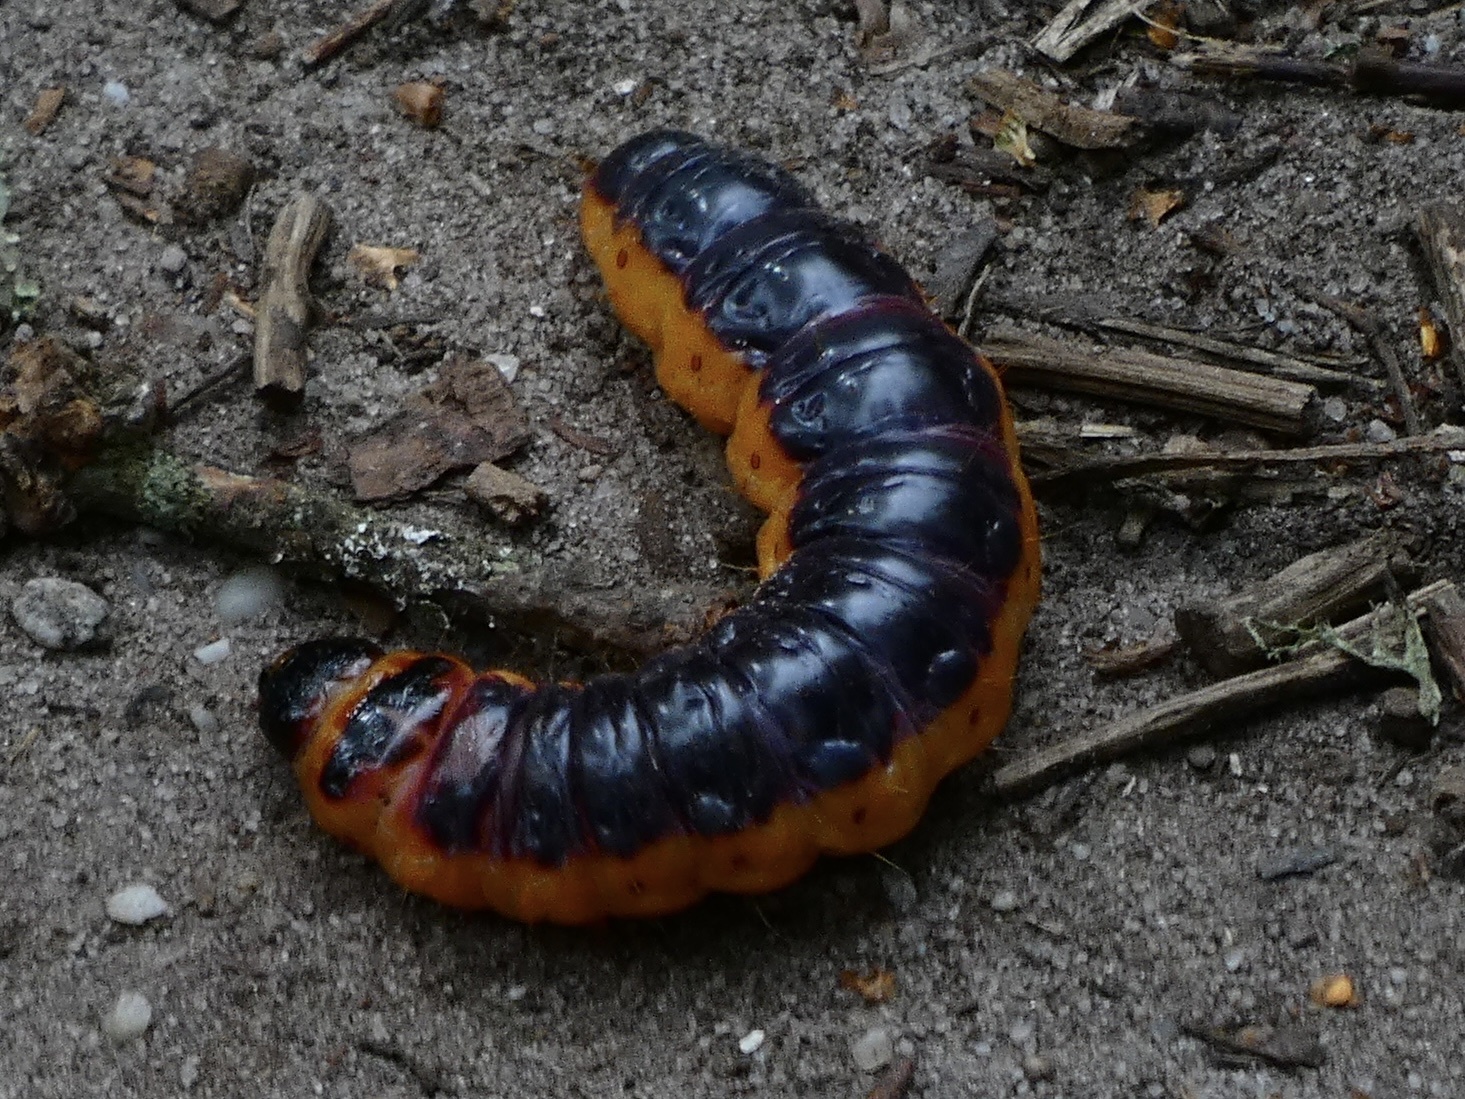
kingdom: Animalia
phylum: Arthropoda
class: Insecta
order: Lepidoptera
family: Cossidae
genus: Cossus
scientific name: Cossus cossus
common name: Goat moth
